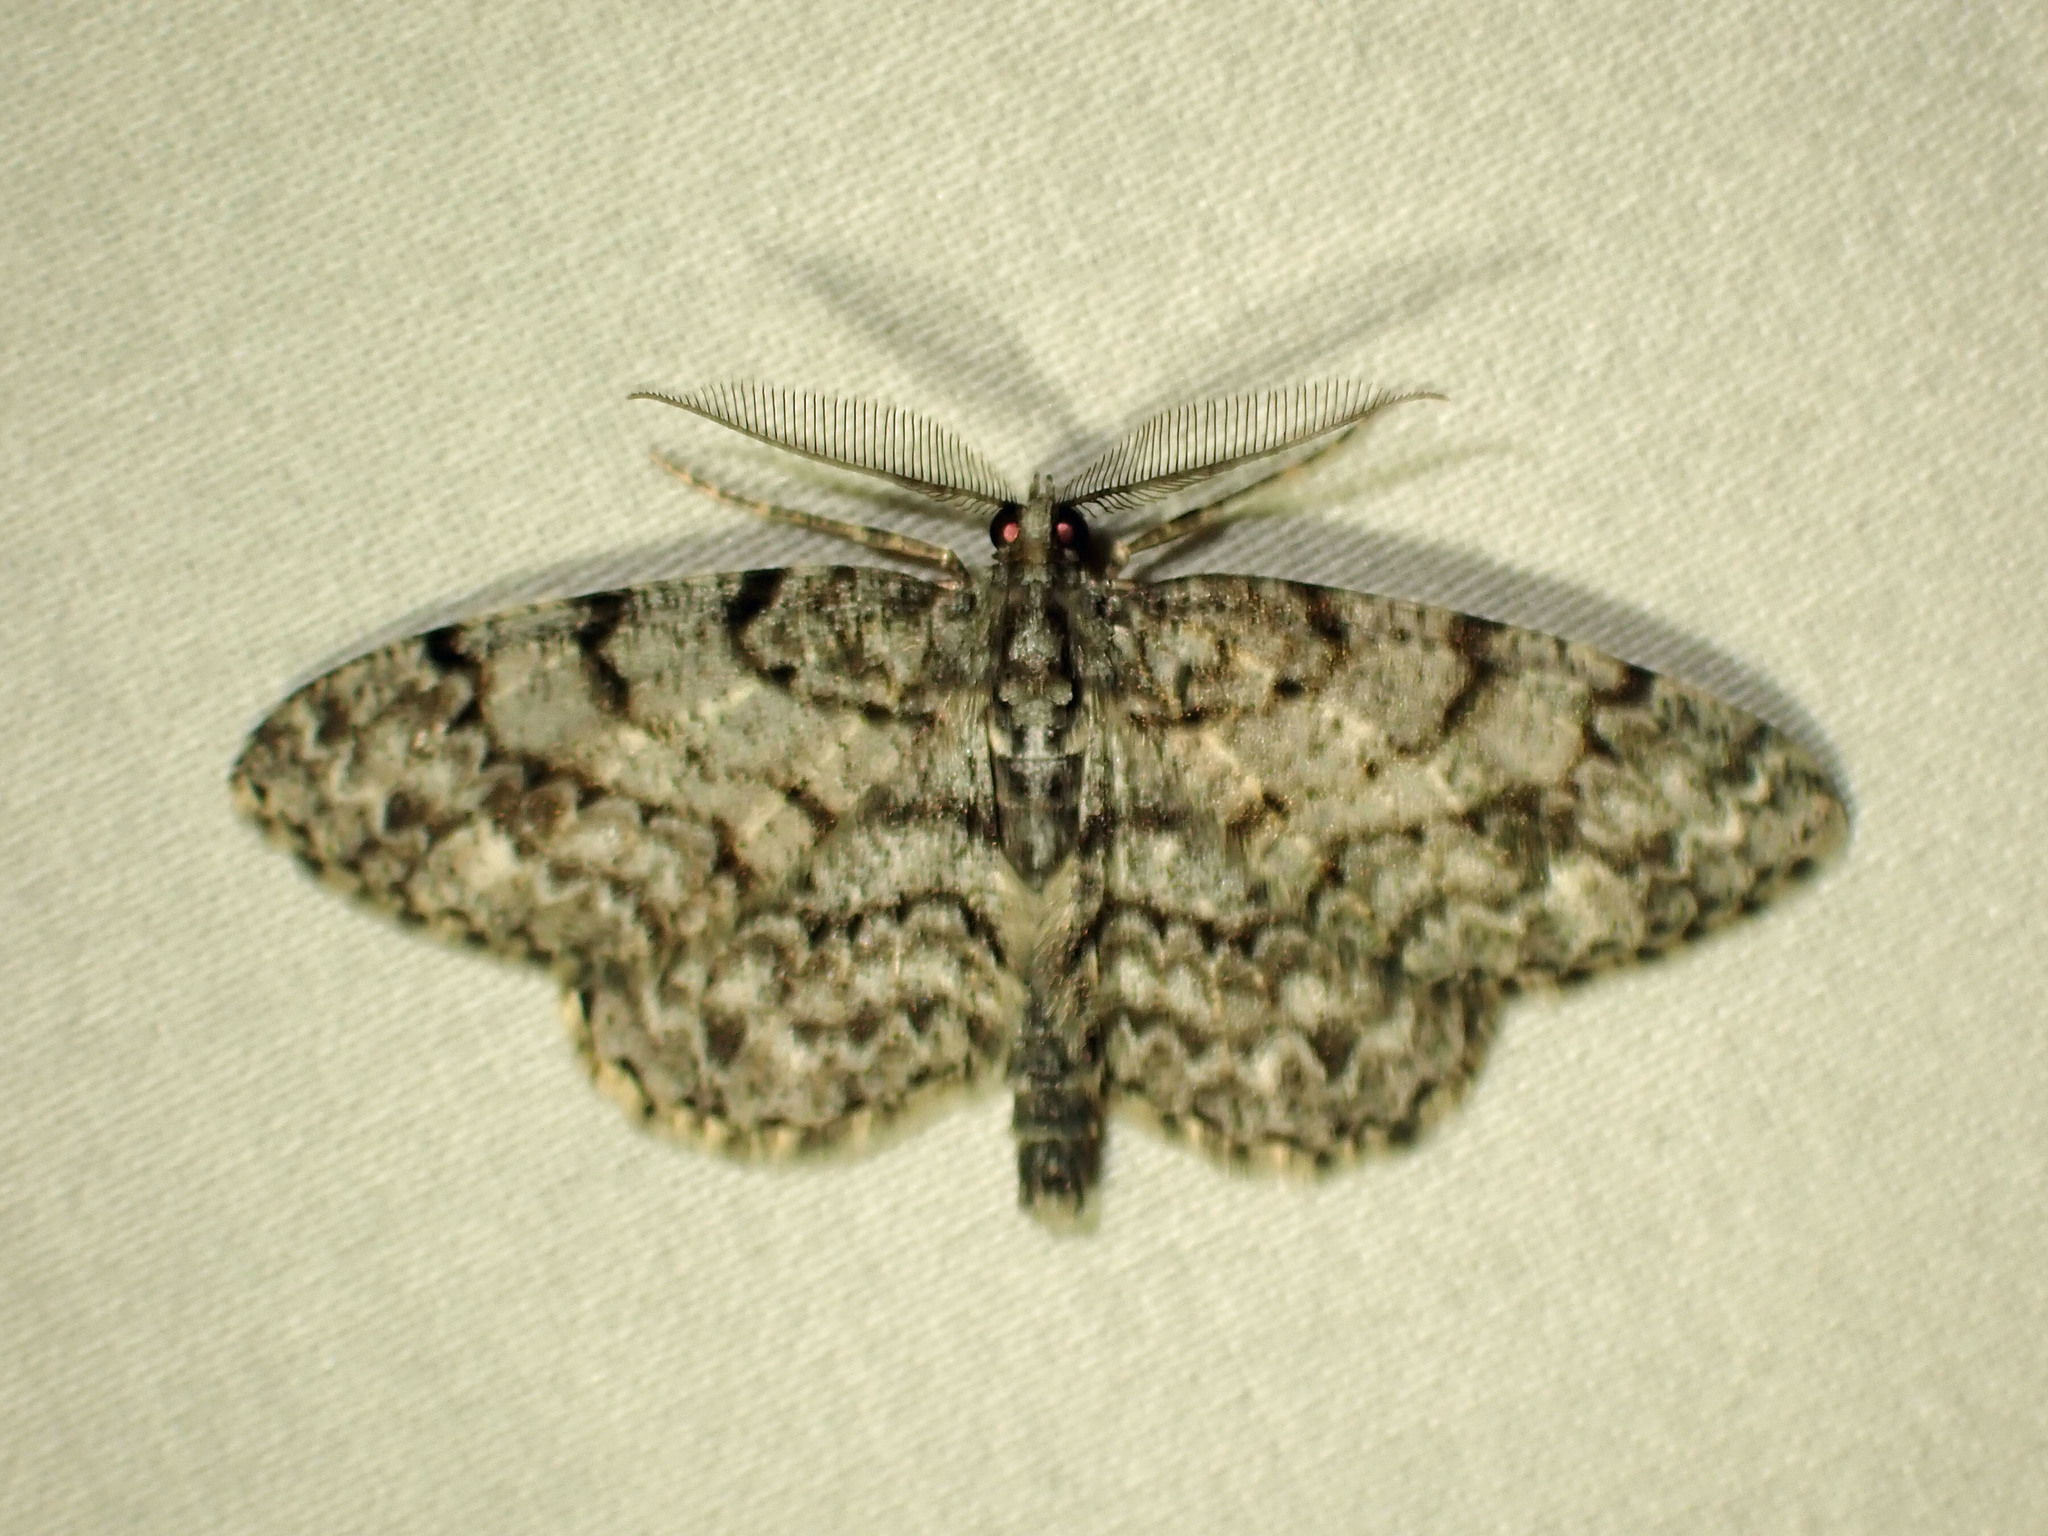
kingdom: Animalia
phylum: Arthropoda
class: Insecta
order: Lepidoptera
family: Geometridae
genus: Protoboarmia
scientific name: Protoboarmia porcelaria
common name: Porcelain gray
